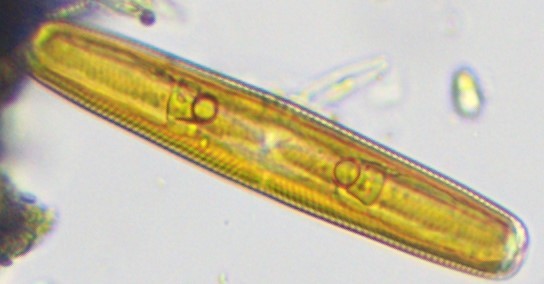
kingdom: Chromista
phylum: Ochrophyta
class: Bacillariophyceae
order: Naviculales
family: Naviculaceae
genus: Navicula
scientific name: Navicula oblonga
